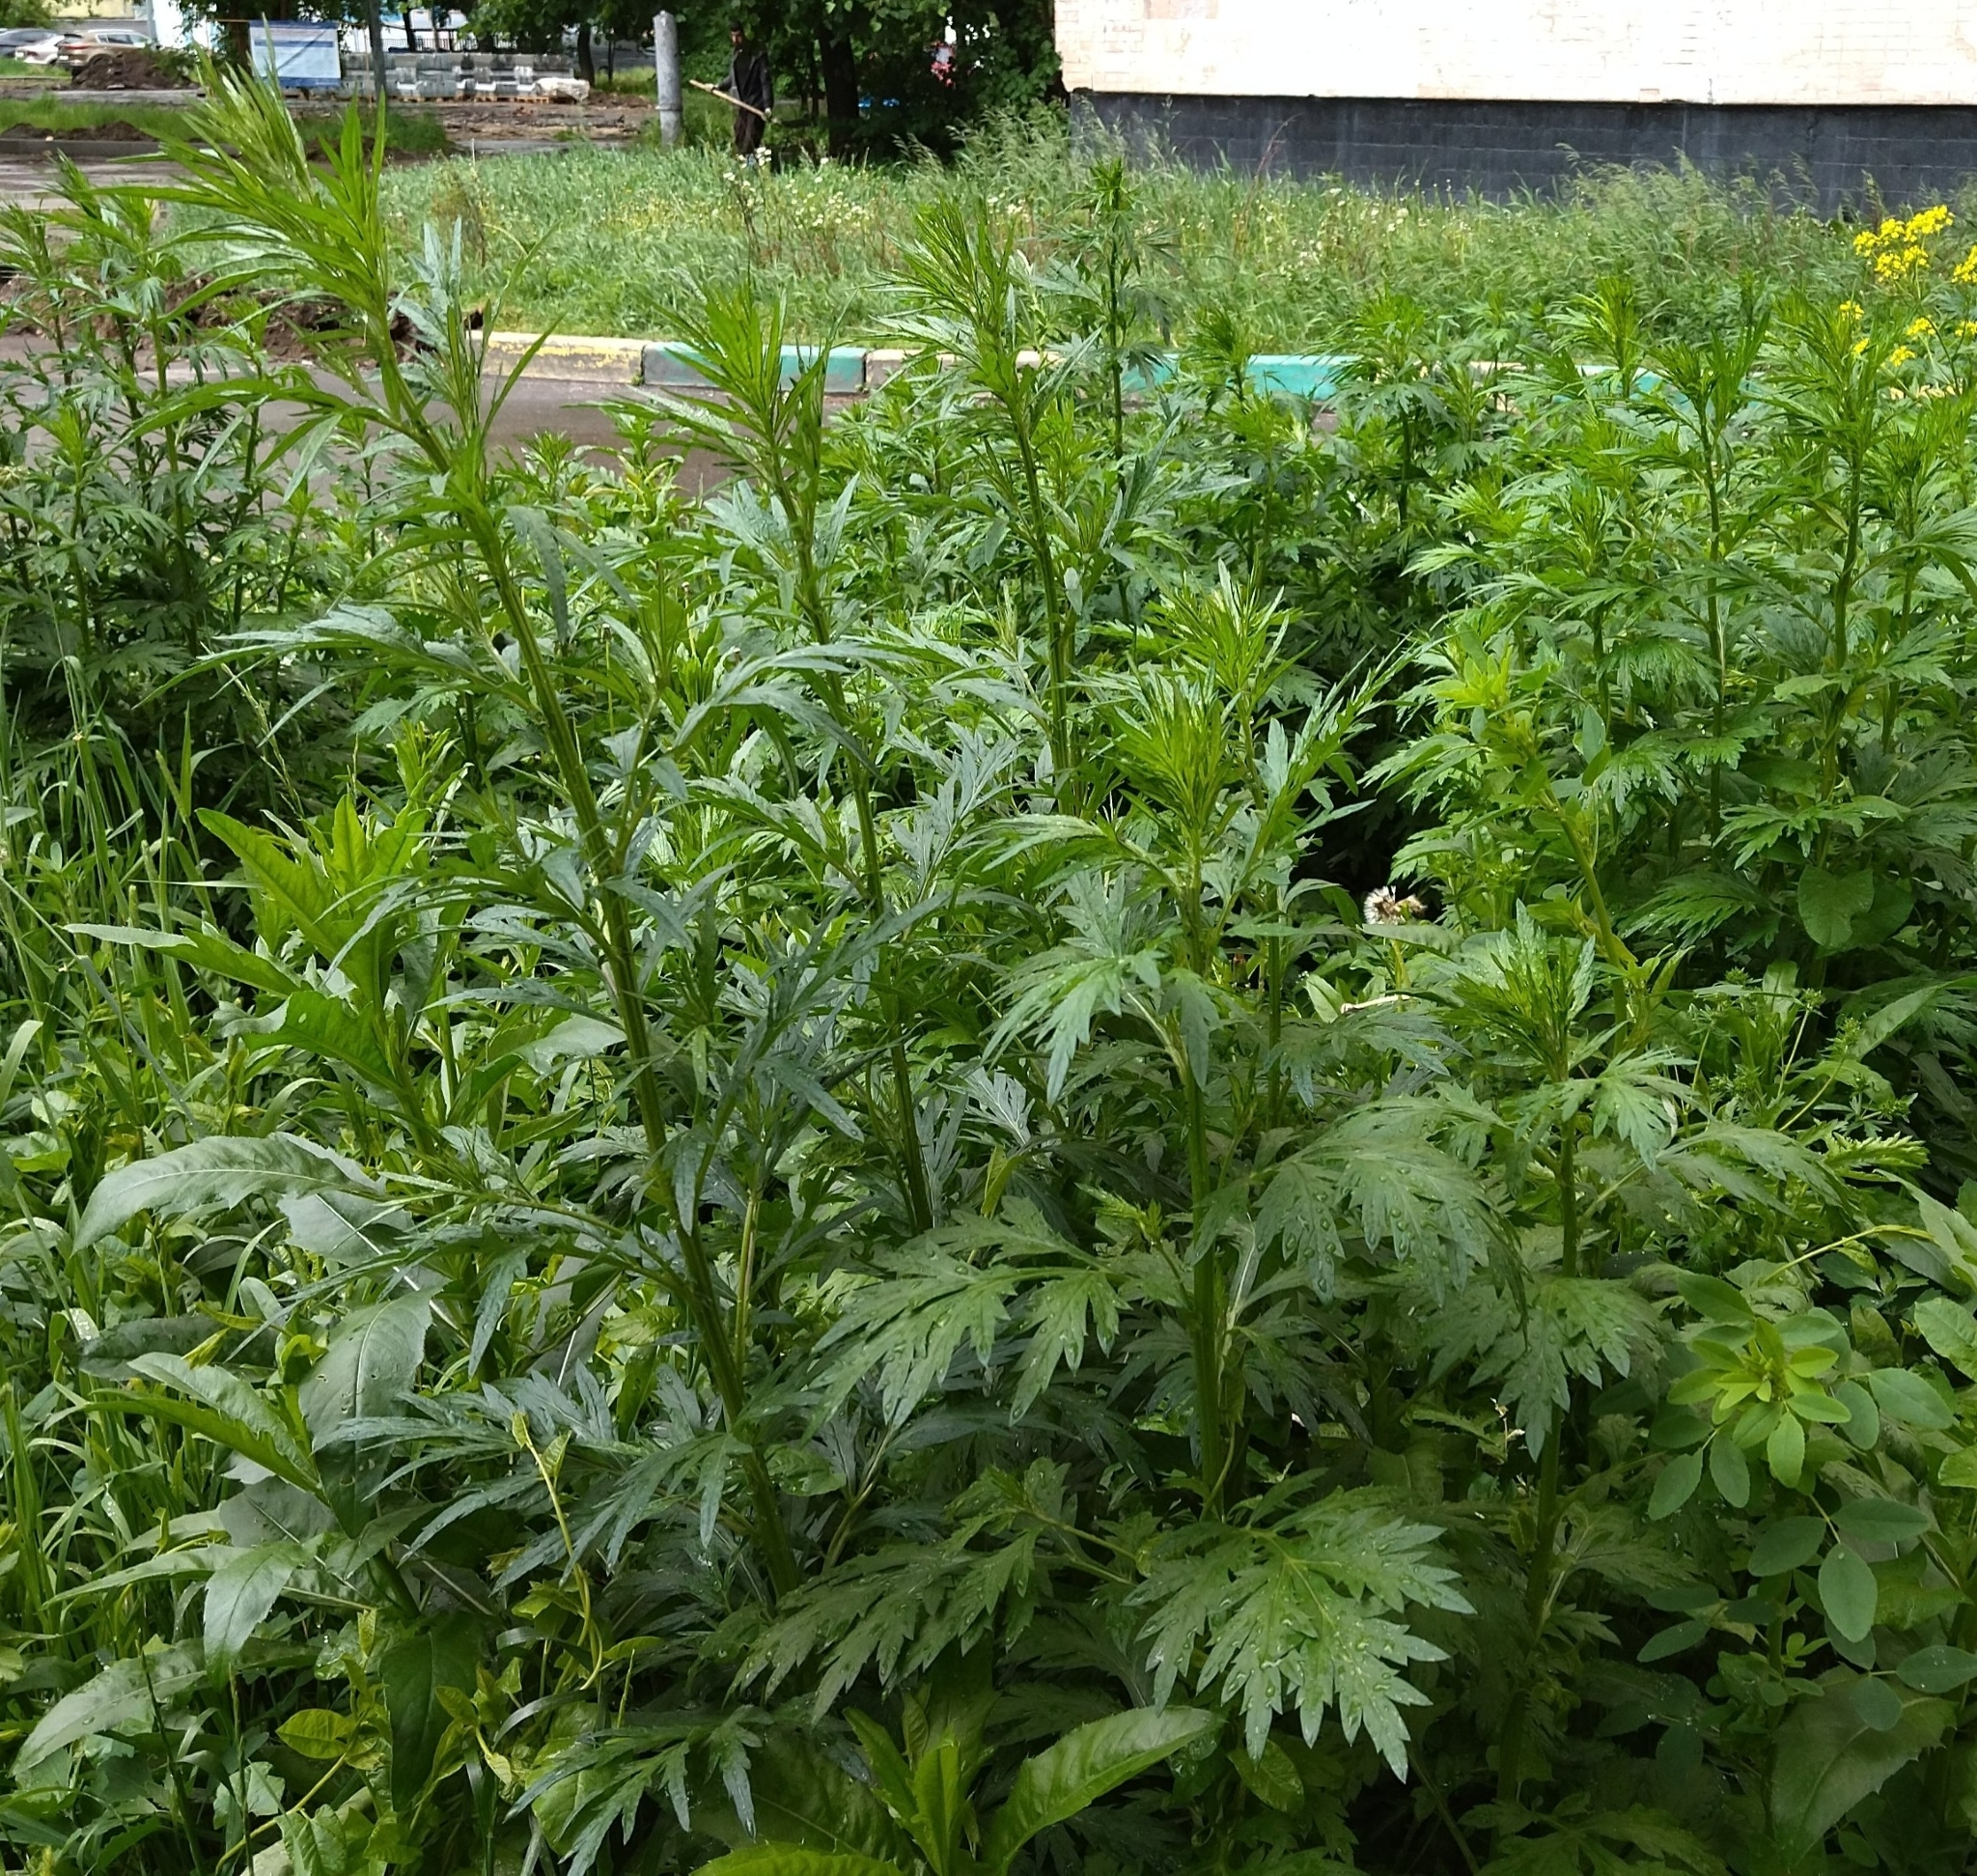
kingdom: Plantae
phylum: Tracheophyta
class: Magnoliopsida
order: Asterales
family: Asteraceae
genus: Artemisia
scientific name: Artemisia vulgaris
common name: Mugwort
